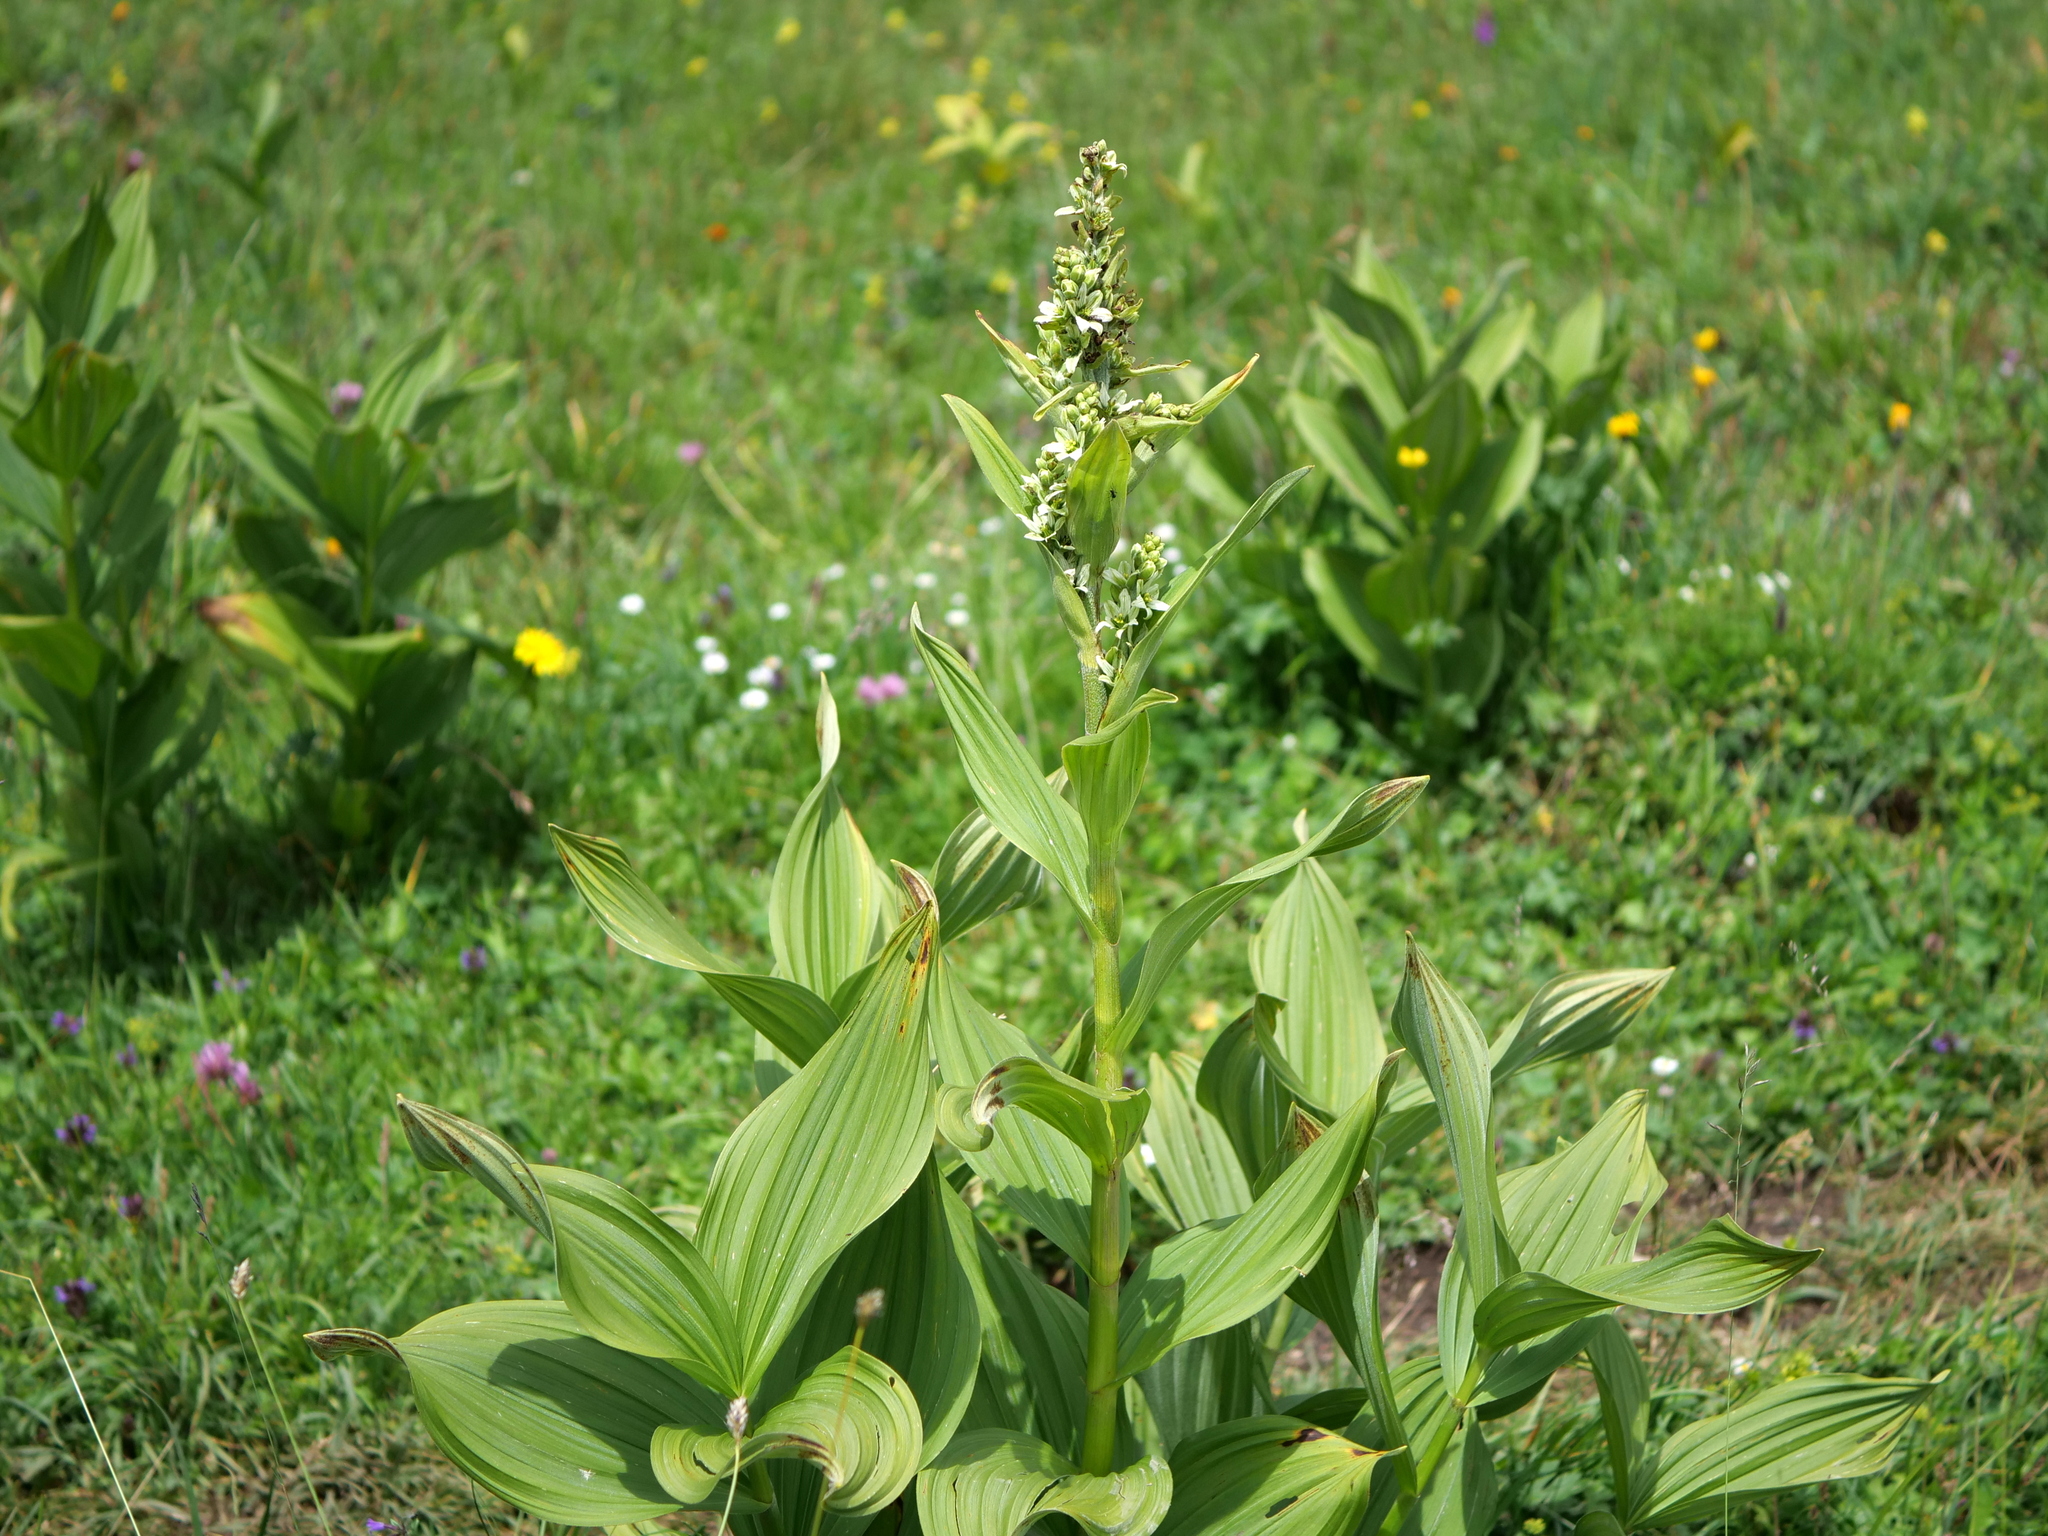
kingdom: Plantae
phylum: Tracheophyta
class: Liliopsida
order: Liliales
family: Melanthiaceae
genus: Veratrum
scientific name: Veratrum lobelianum
